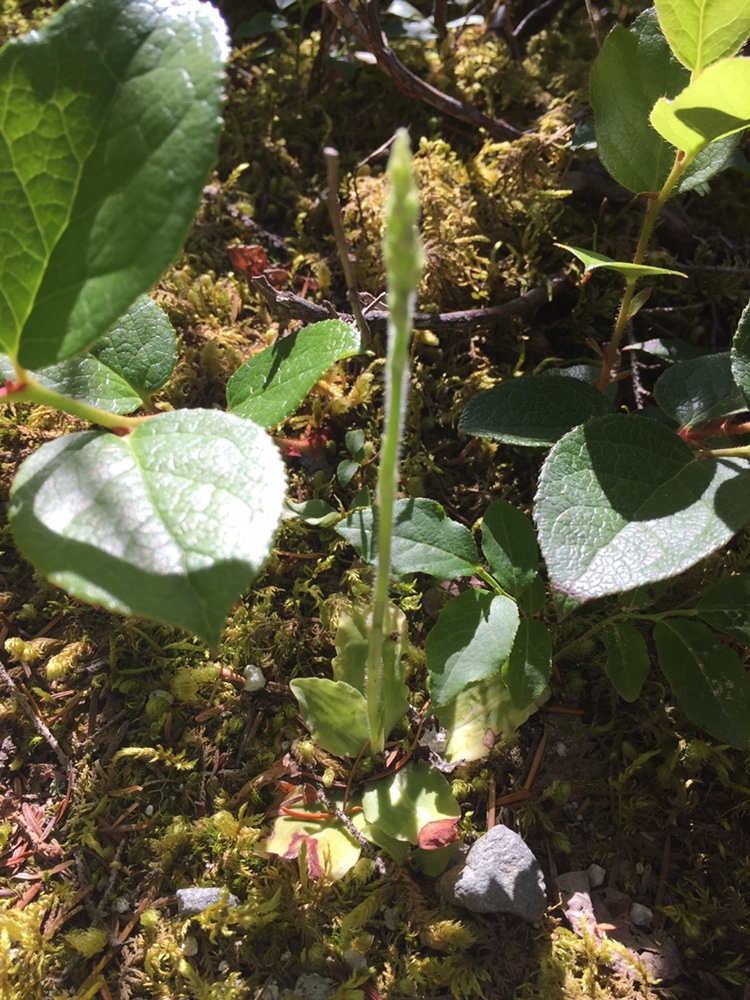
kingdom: Plantae
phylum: Tracheophyta
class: Liliopsida
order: Asparagales
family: Orchidaceae
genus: Goodyera
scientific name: Goodyera oblongifolia
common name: Giant rattlesnake-plantain
